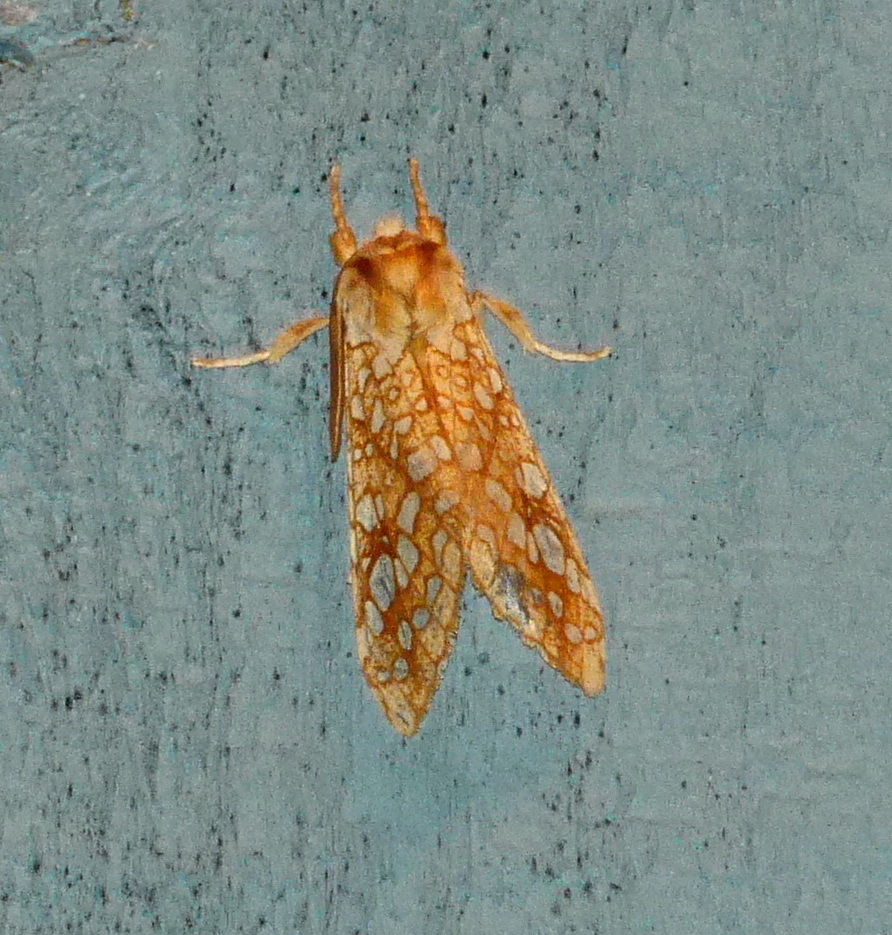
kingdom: Animalia
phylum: Arthropoda
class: Insecta
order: Lepidoptera
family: Erebidae
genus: Lophocampa
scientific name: Lophocampa caryae
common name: Hickory tussock moth
